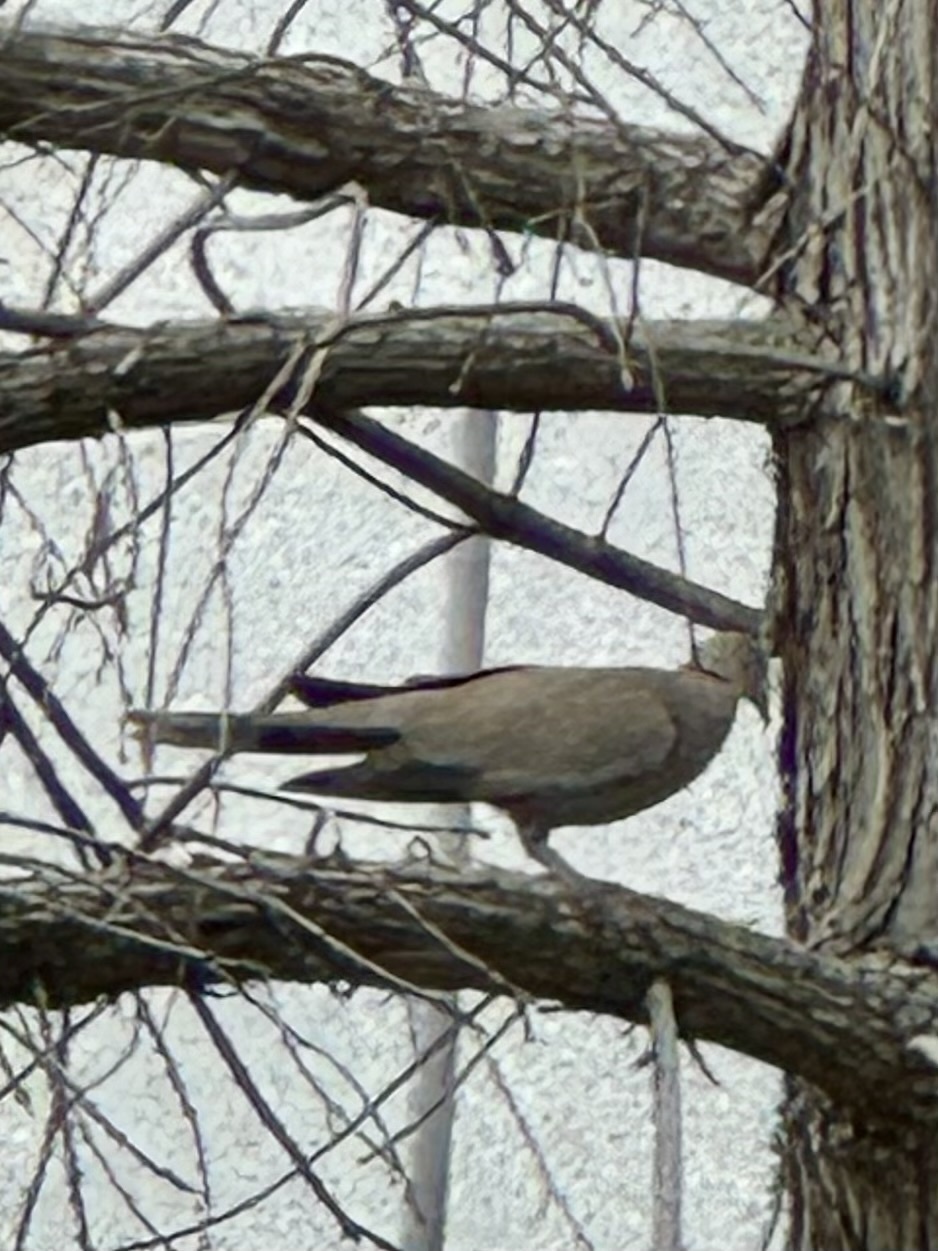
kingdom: Animalia
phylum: Chordata
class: Aves
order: Columbiformes
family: Columbidae
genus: Streptopelia
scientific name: Streptopelia decaocto
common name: Eurasian collared dove
